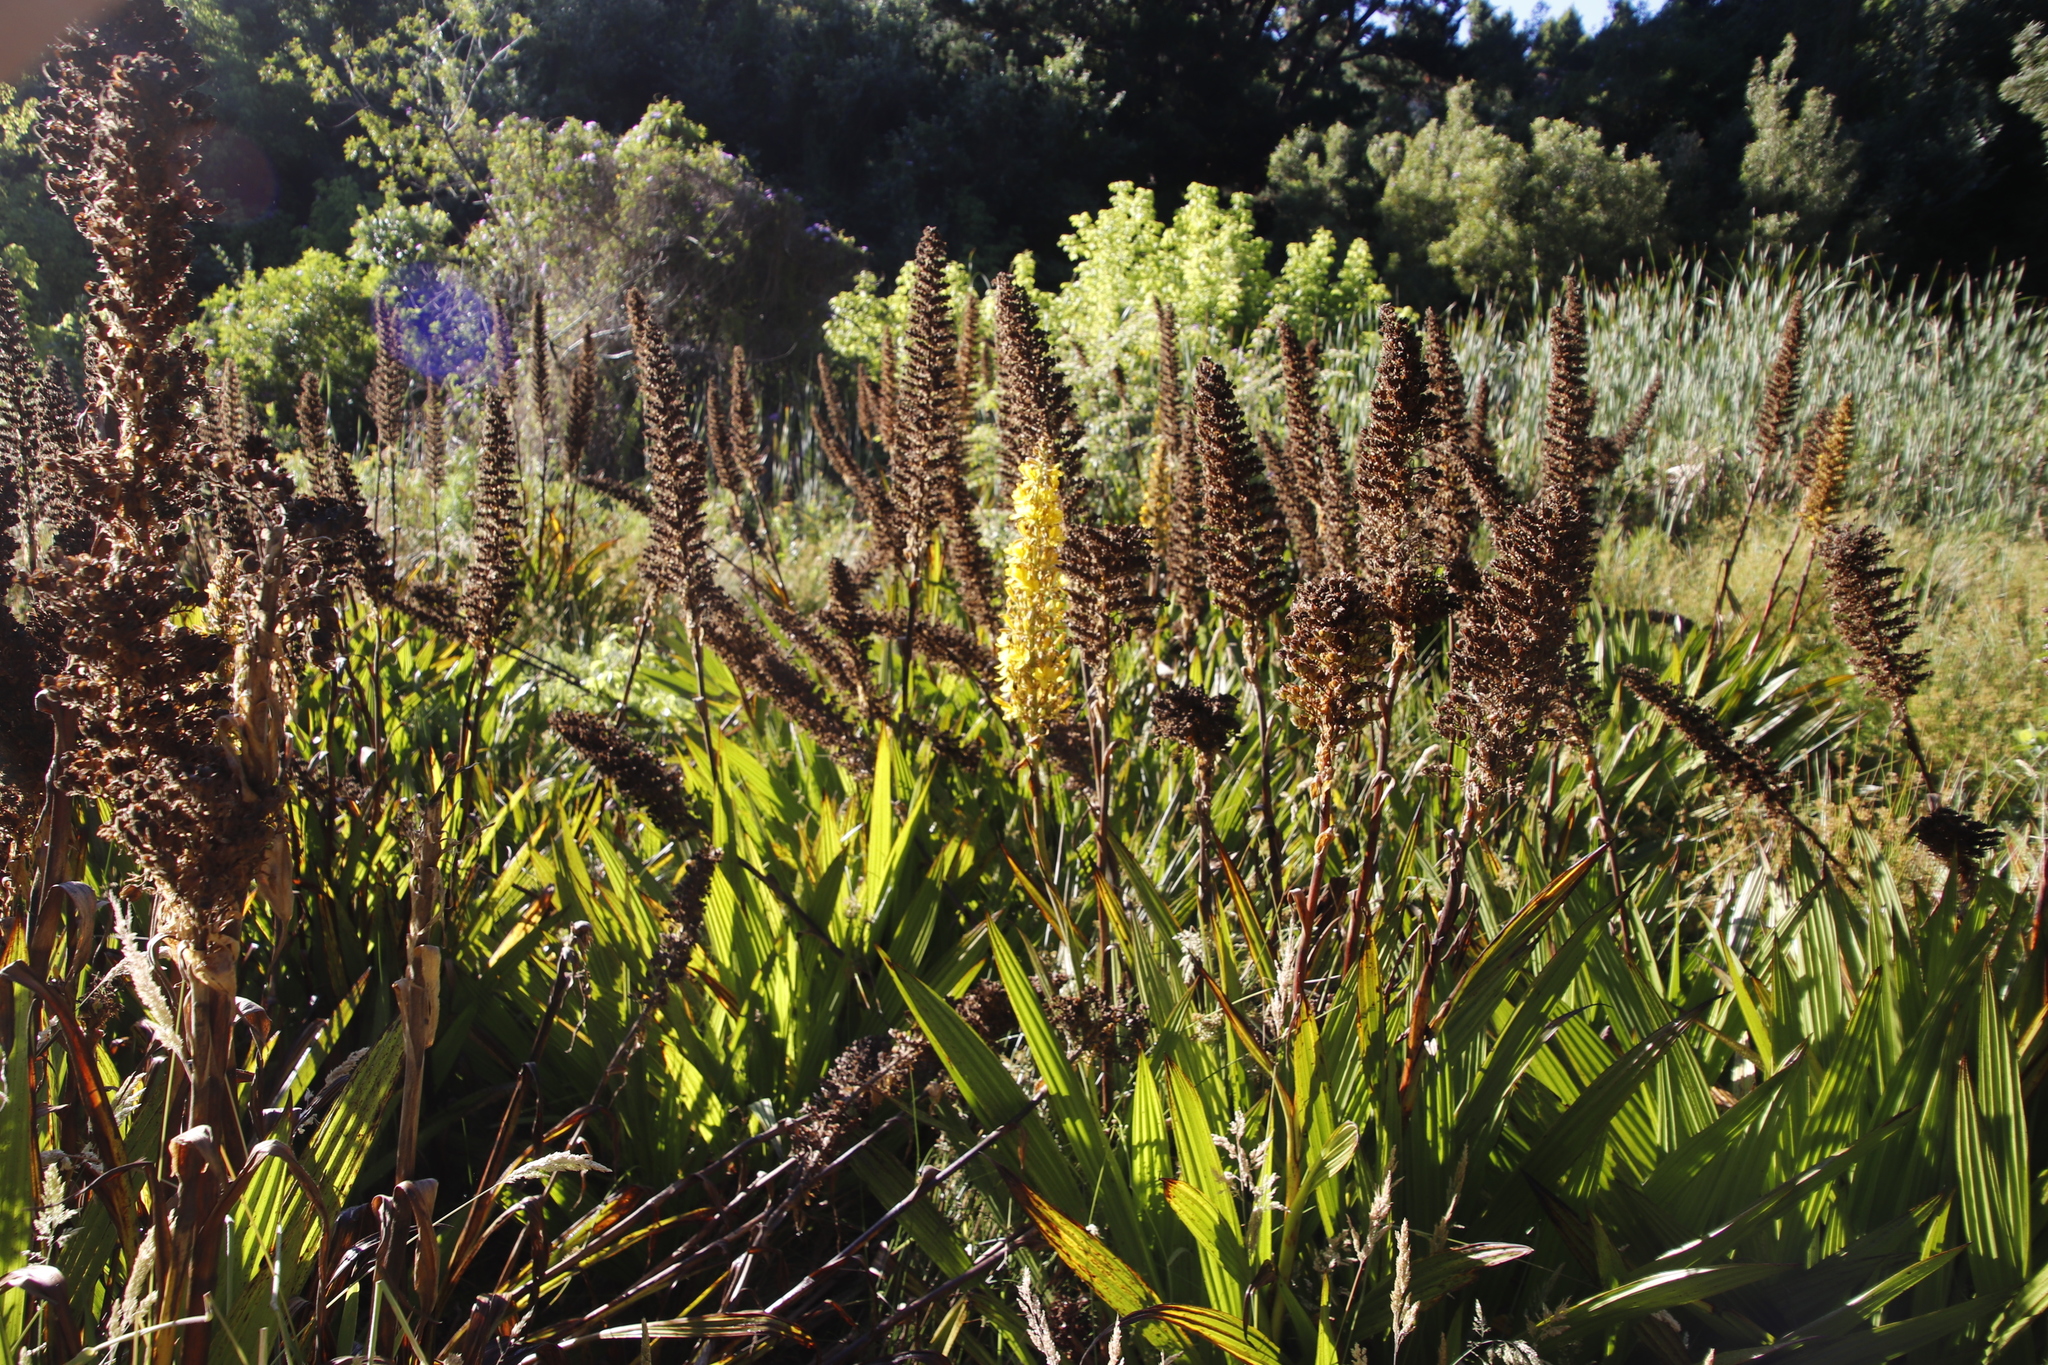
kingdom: Plantae
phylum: Tracheophyta
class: Liliopsida
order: Commelinales
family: Haemodoraceae
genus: Wachendorfia
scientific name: Wachendorfia thyrsiflora
